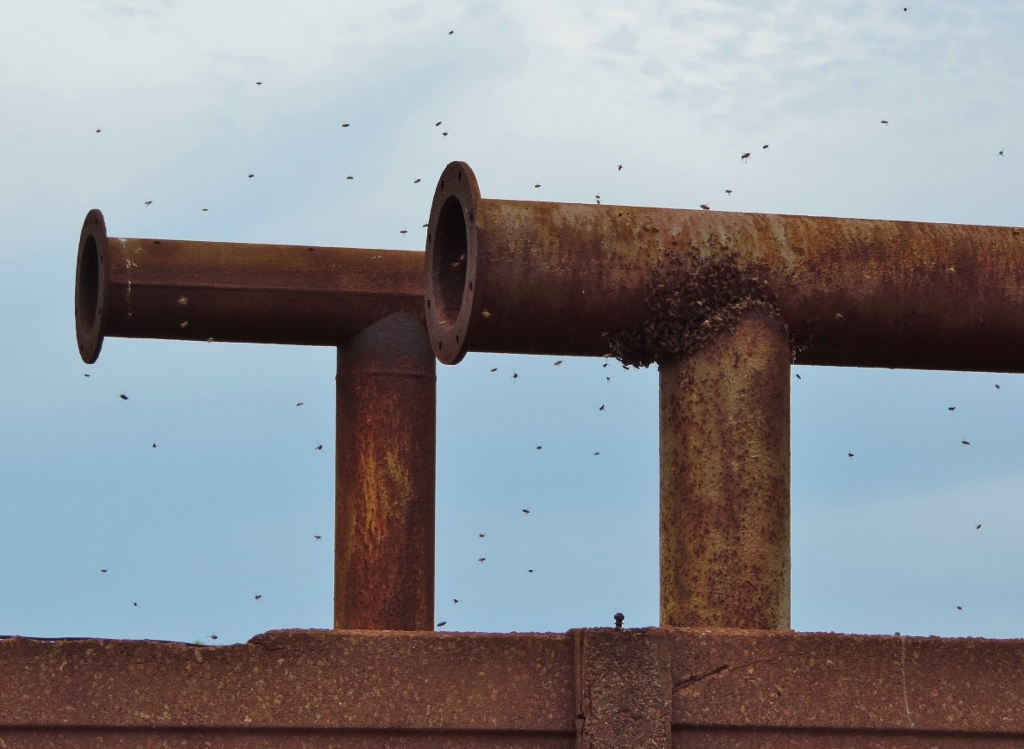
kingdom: Animalia
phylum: Arthropoda
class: Insecta
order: Hymenoptera
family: Apidae
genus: Apis
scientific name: Apis mellifera
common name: Honey bee
